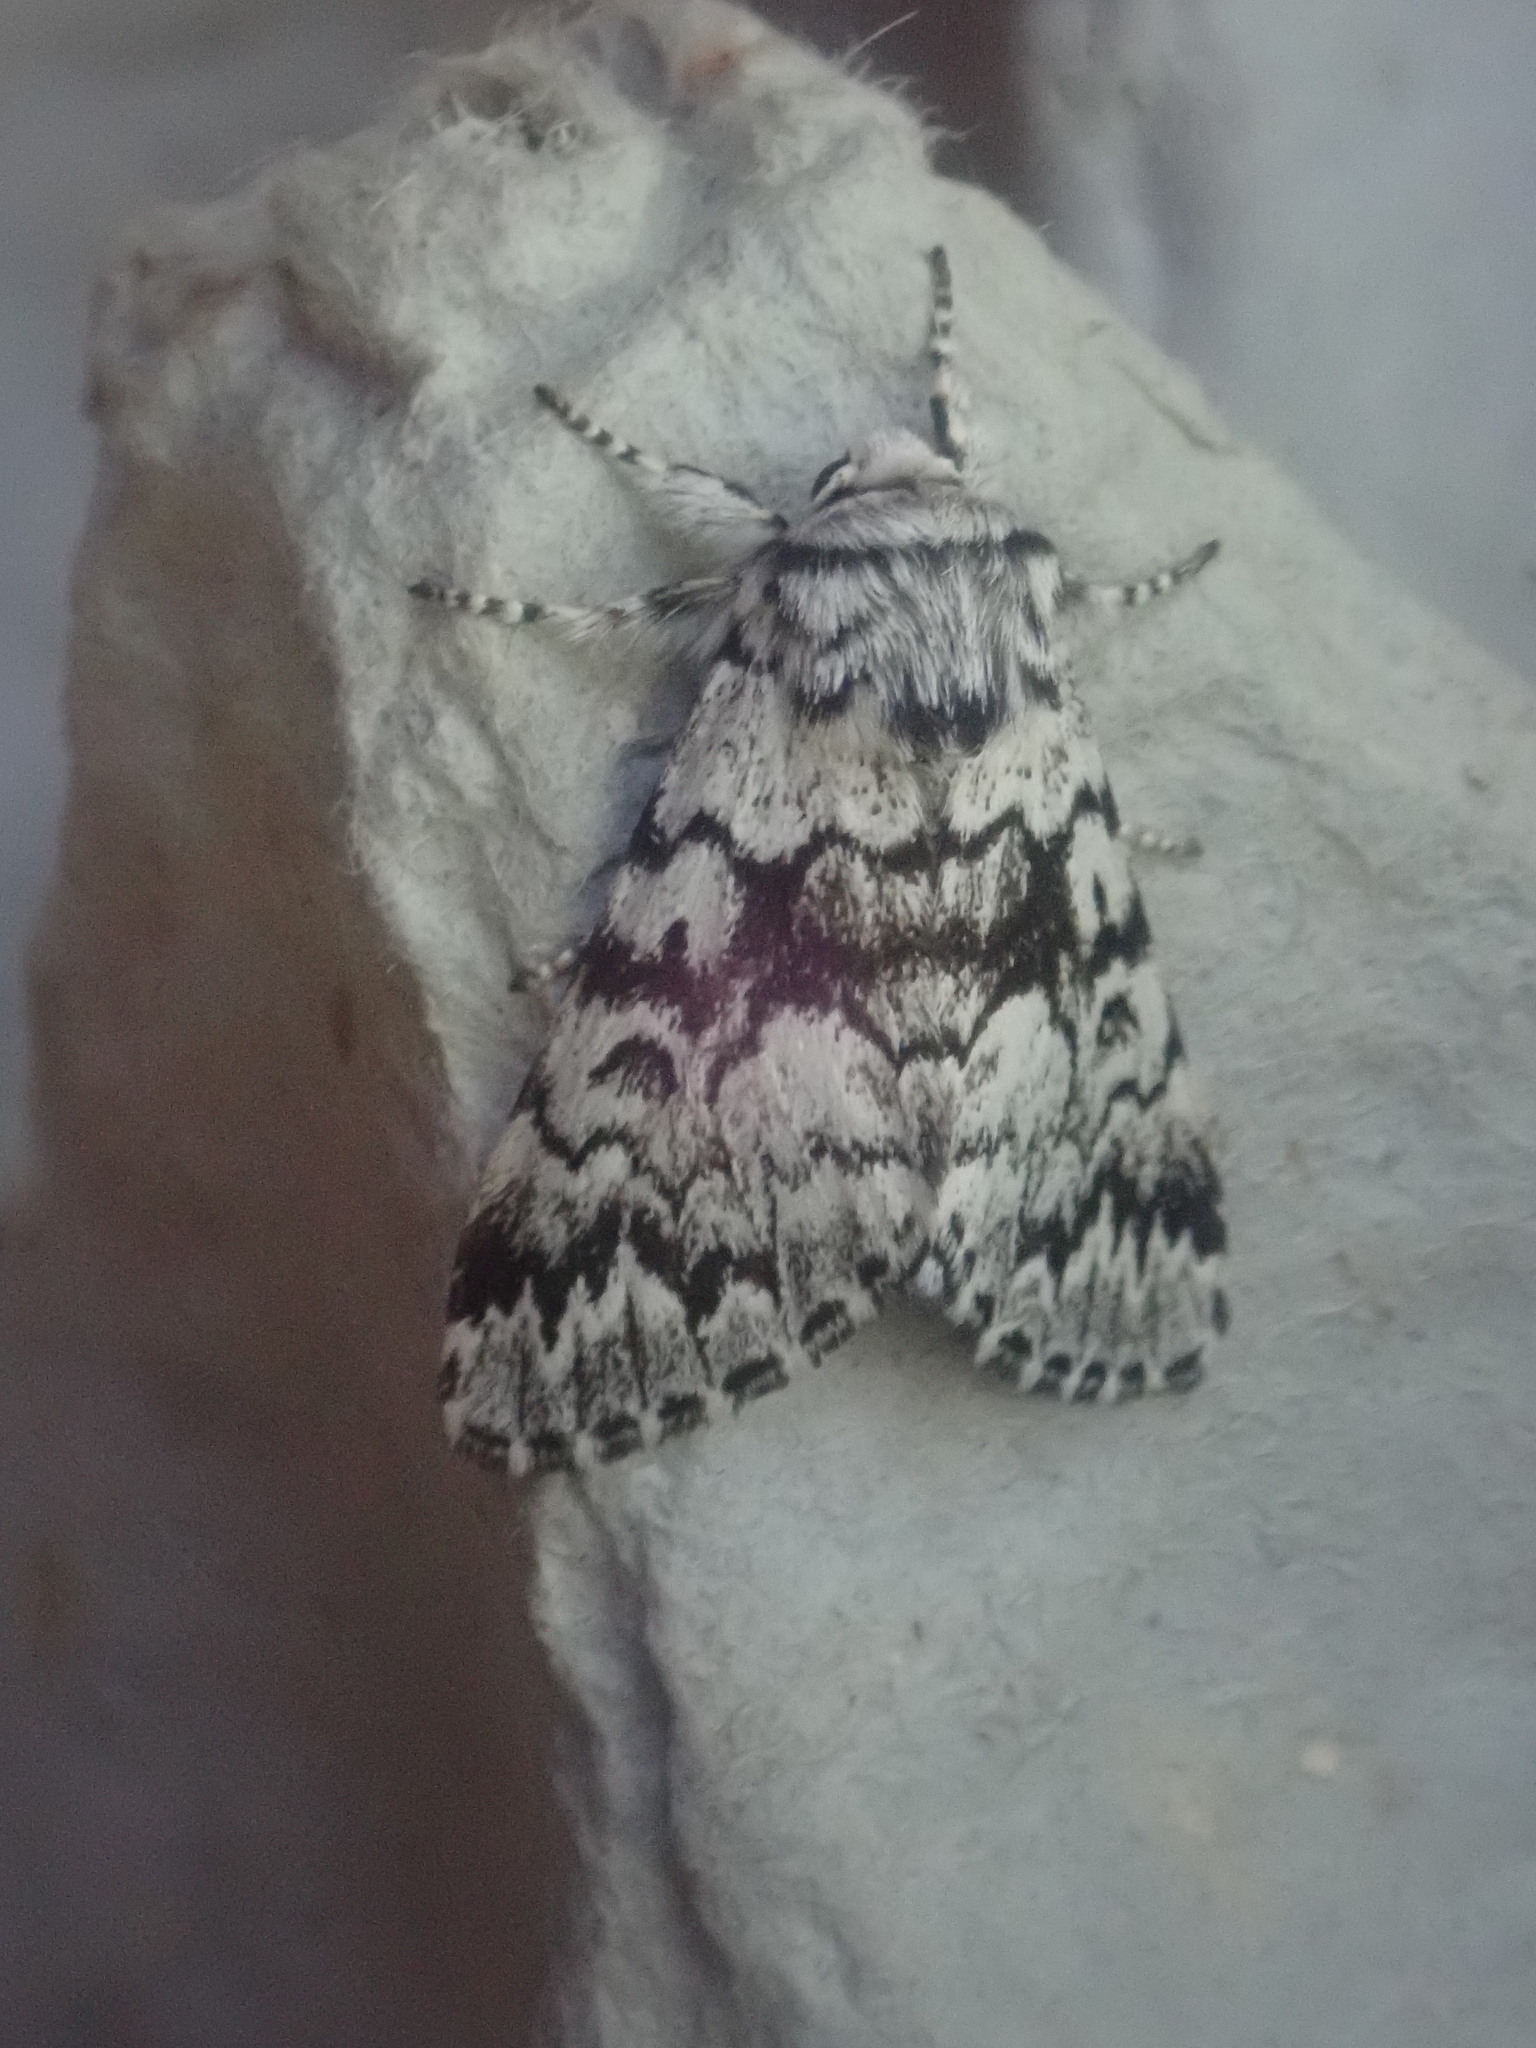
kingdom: Animalia
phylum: Arthropoda
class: Insecta
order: Lepidoptera
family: Noctuidae
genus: Panthea
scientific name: Panthea acronyctoides
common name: Black zigzag moth
